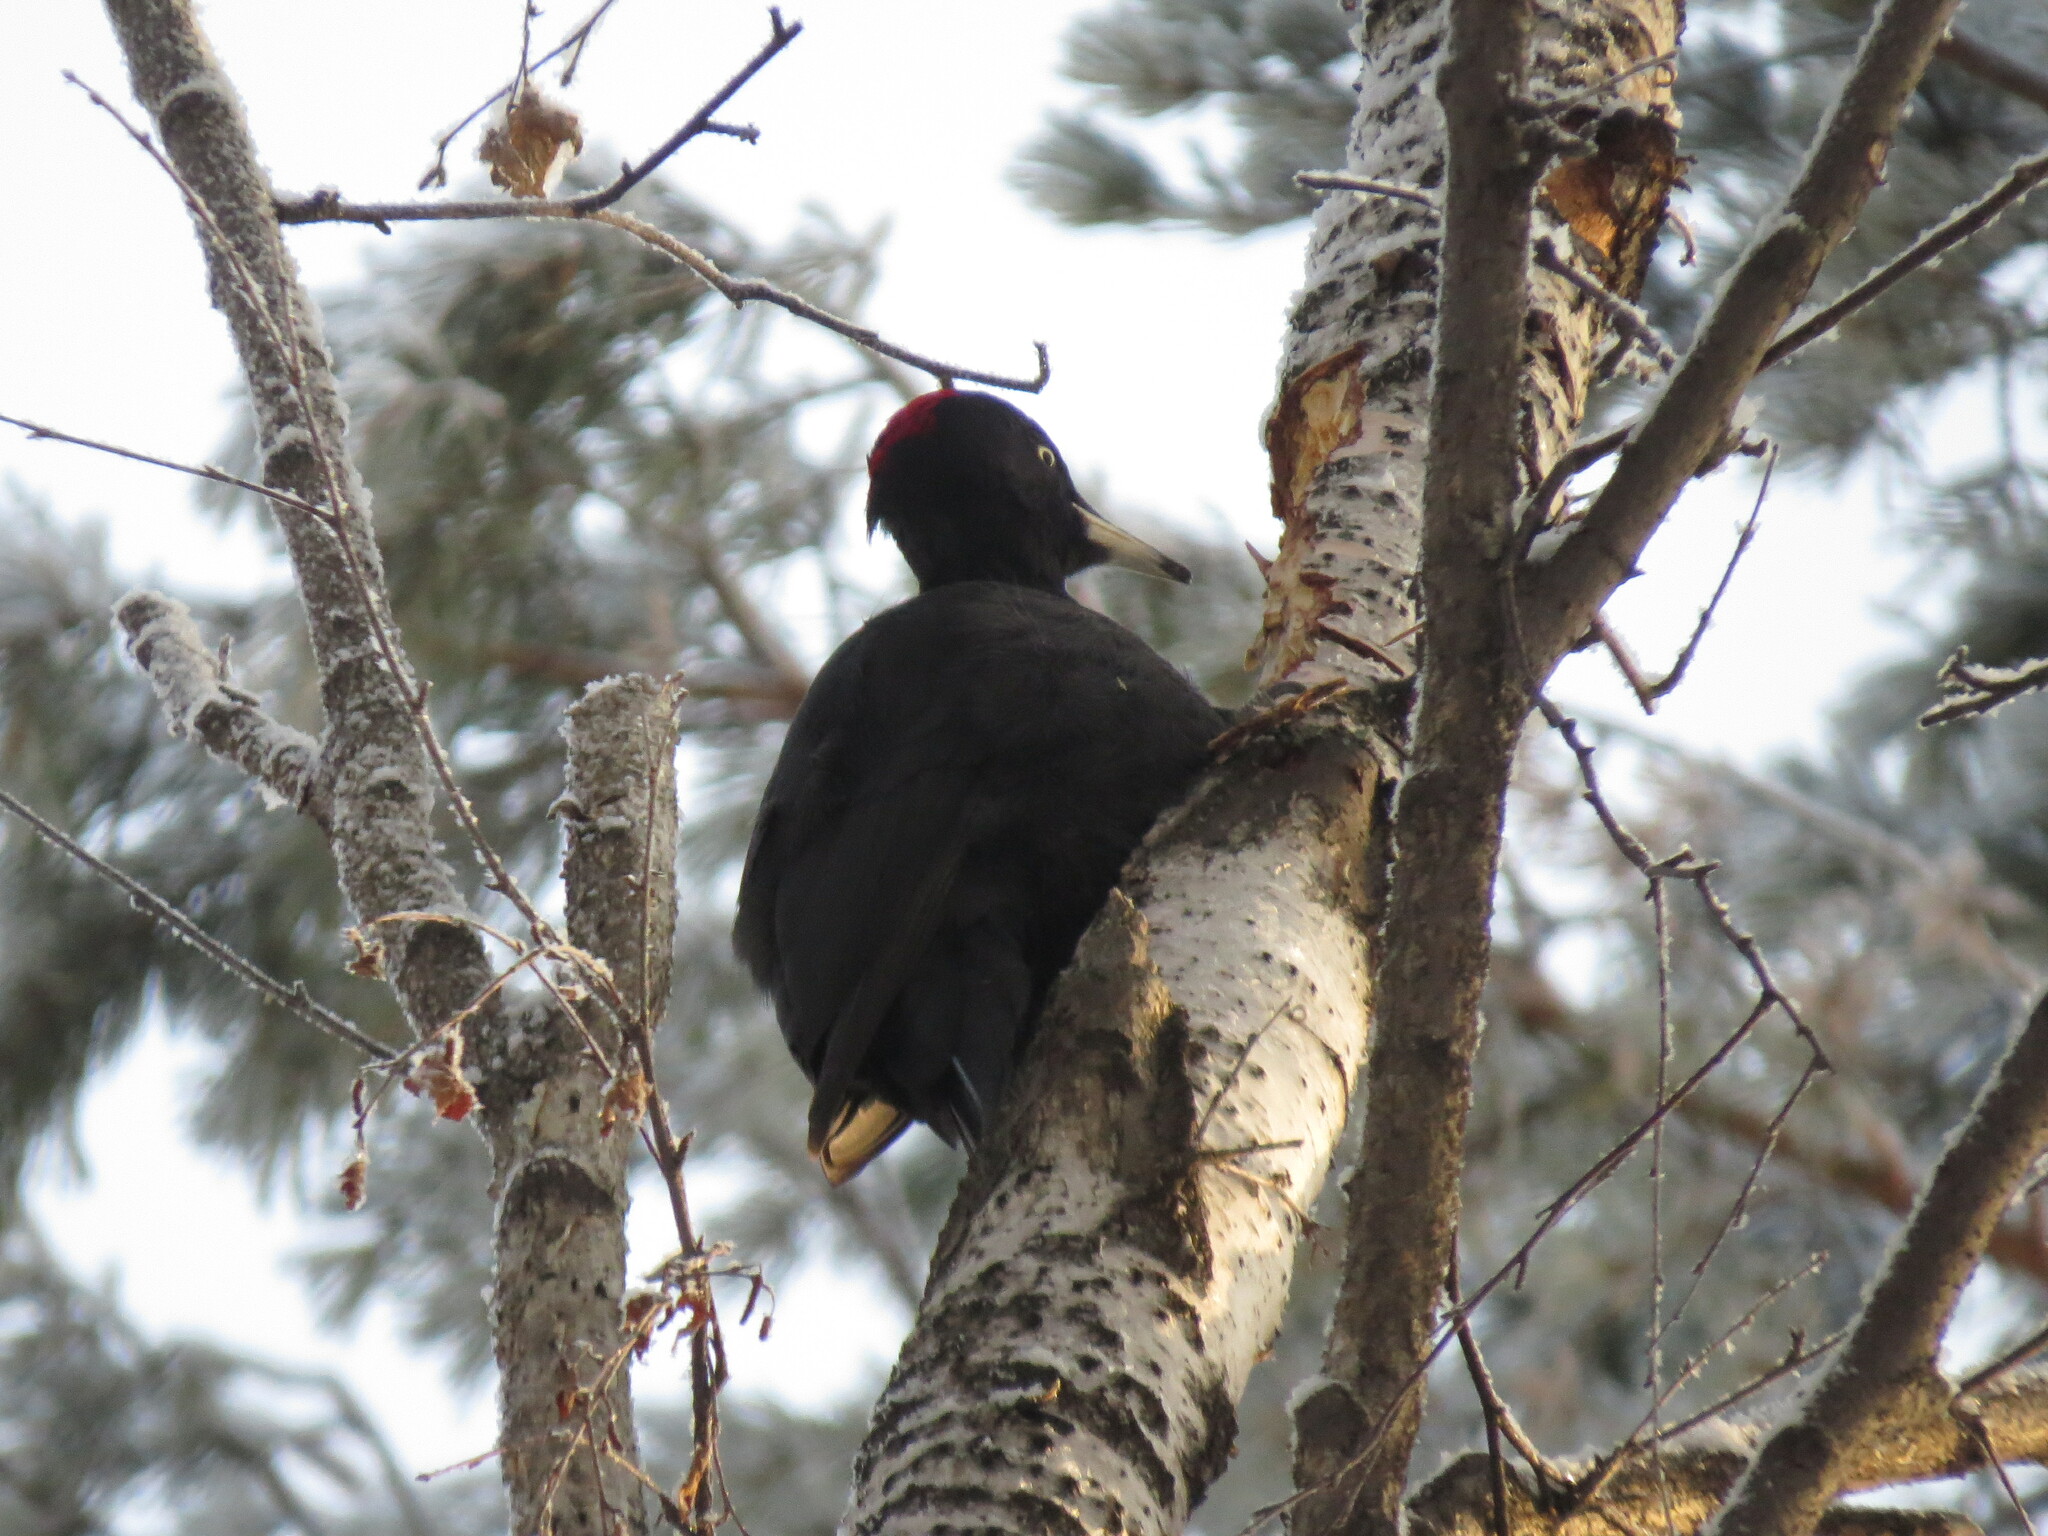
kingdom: Animalia
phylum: Chordata
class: Aves
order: Piciformes
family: Picidae
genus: Dryocopus
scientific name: Dryocopus martius
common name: Black woodpecker
